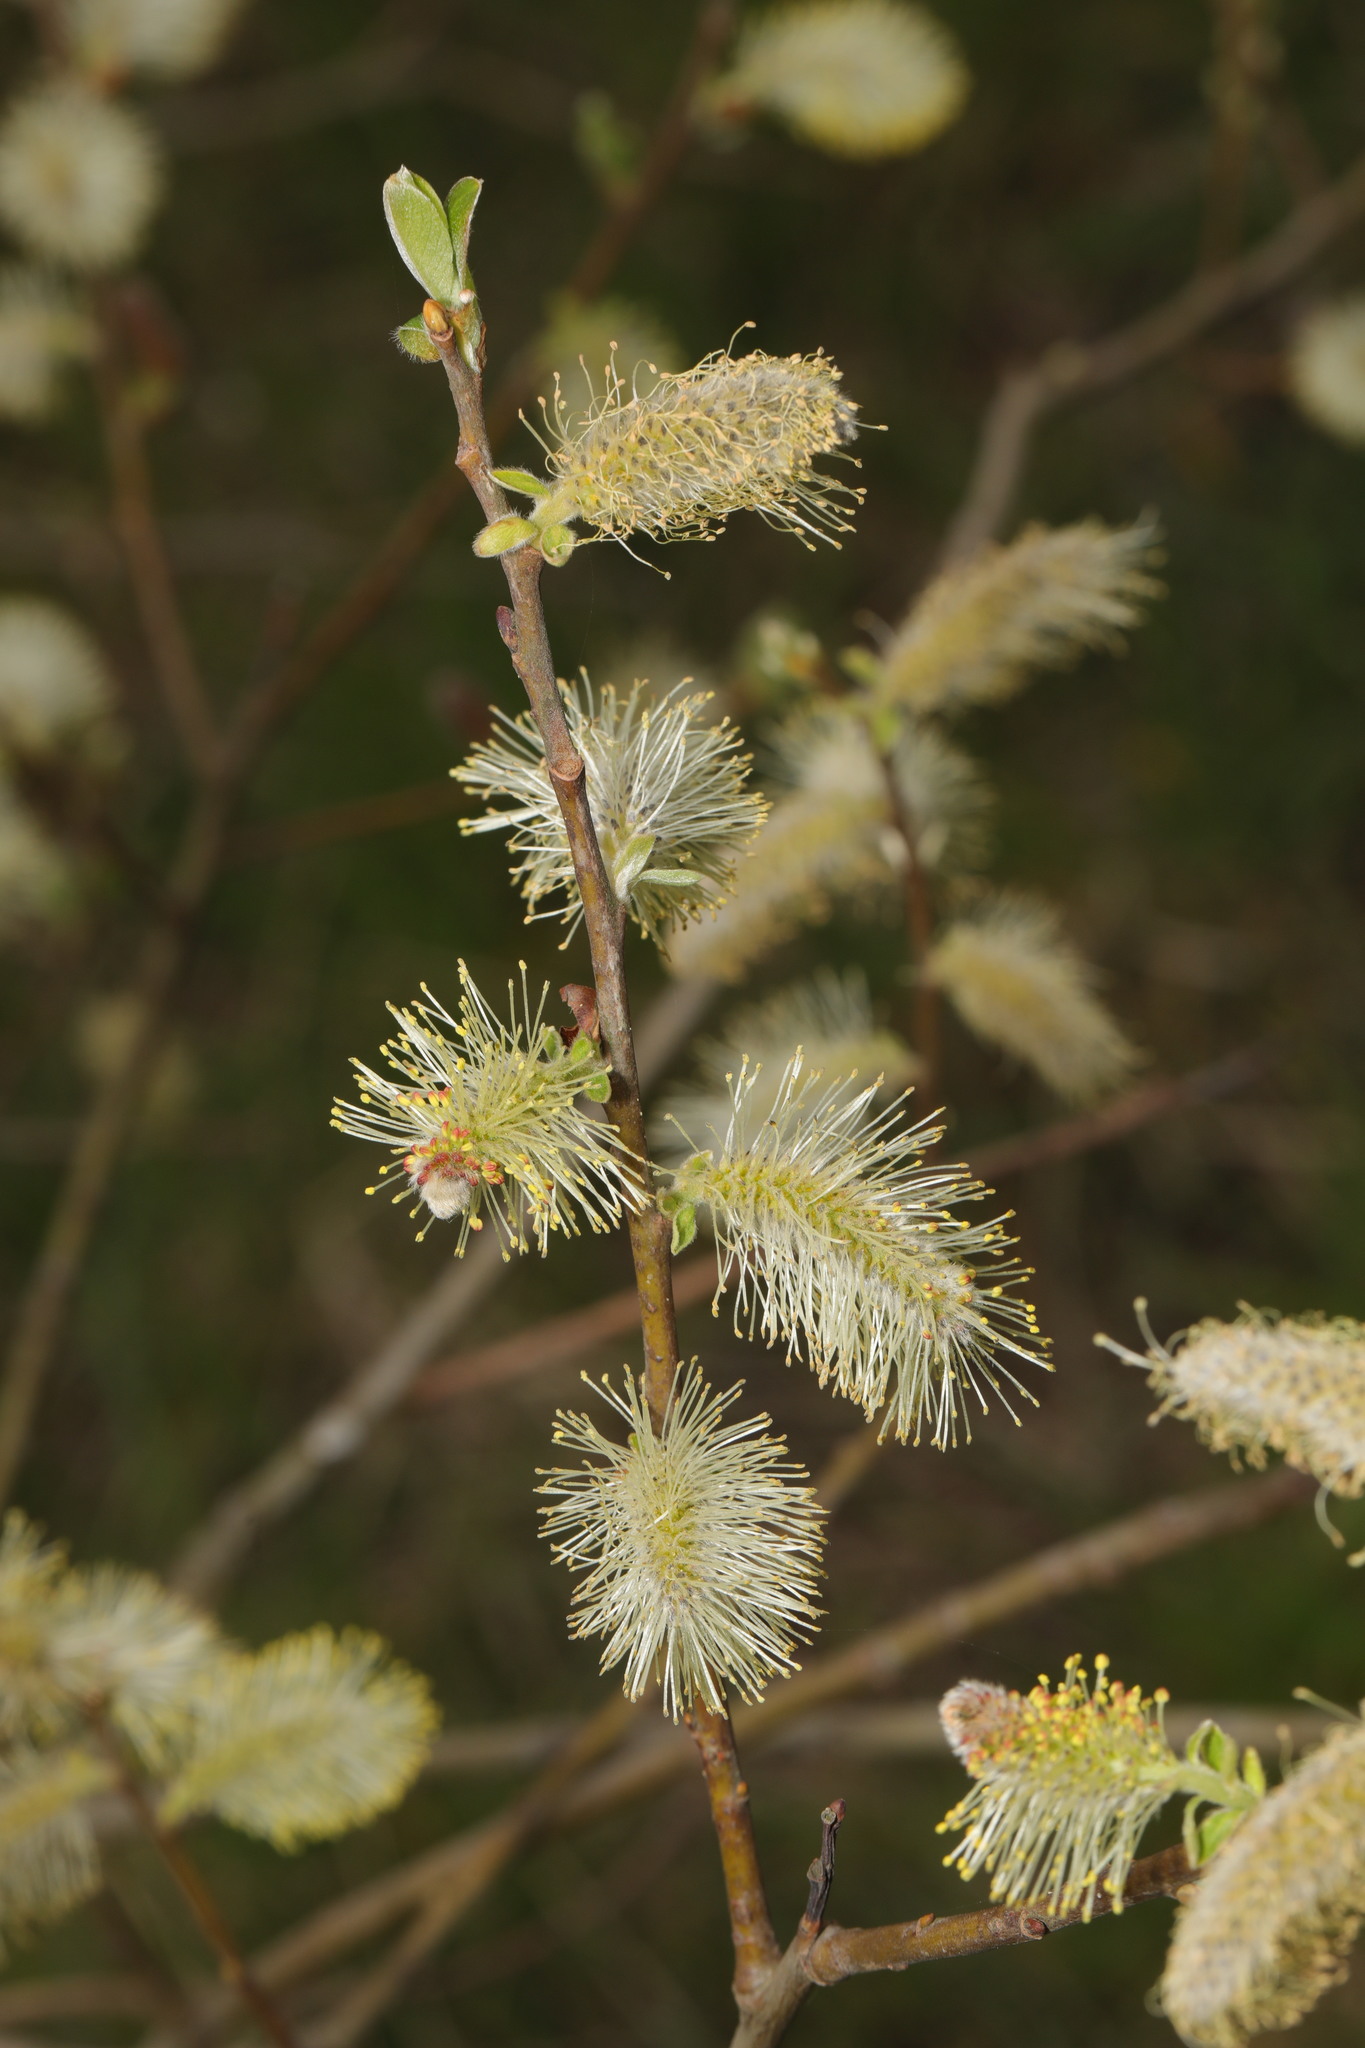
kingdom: Plantae
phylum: Tracheophyta
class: Magnoliopsida
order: Malpighiales
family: Salicaceae
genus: Salix
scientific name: Salix
